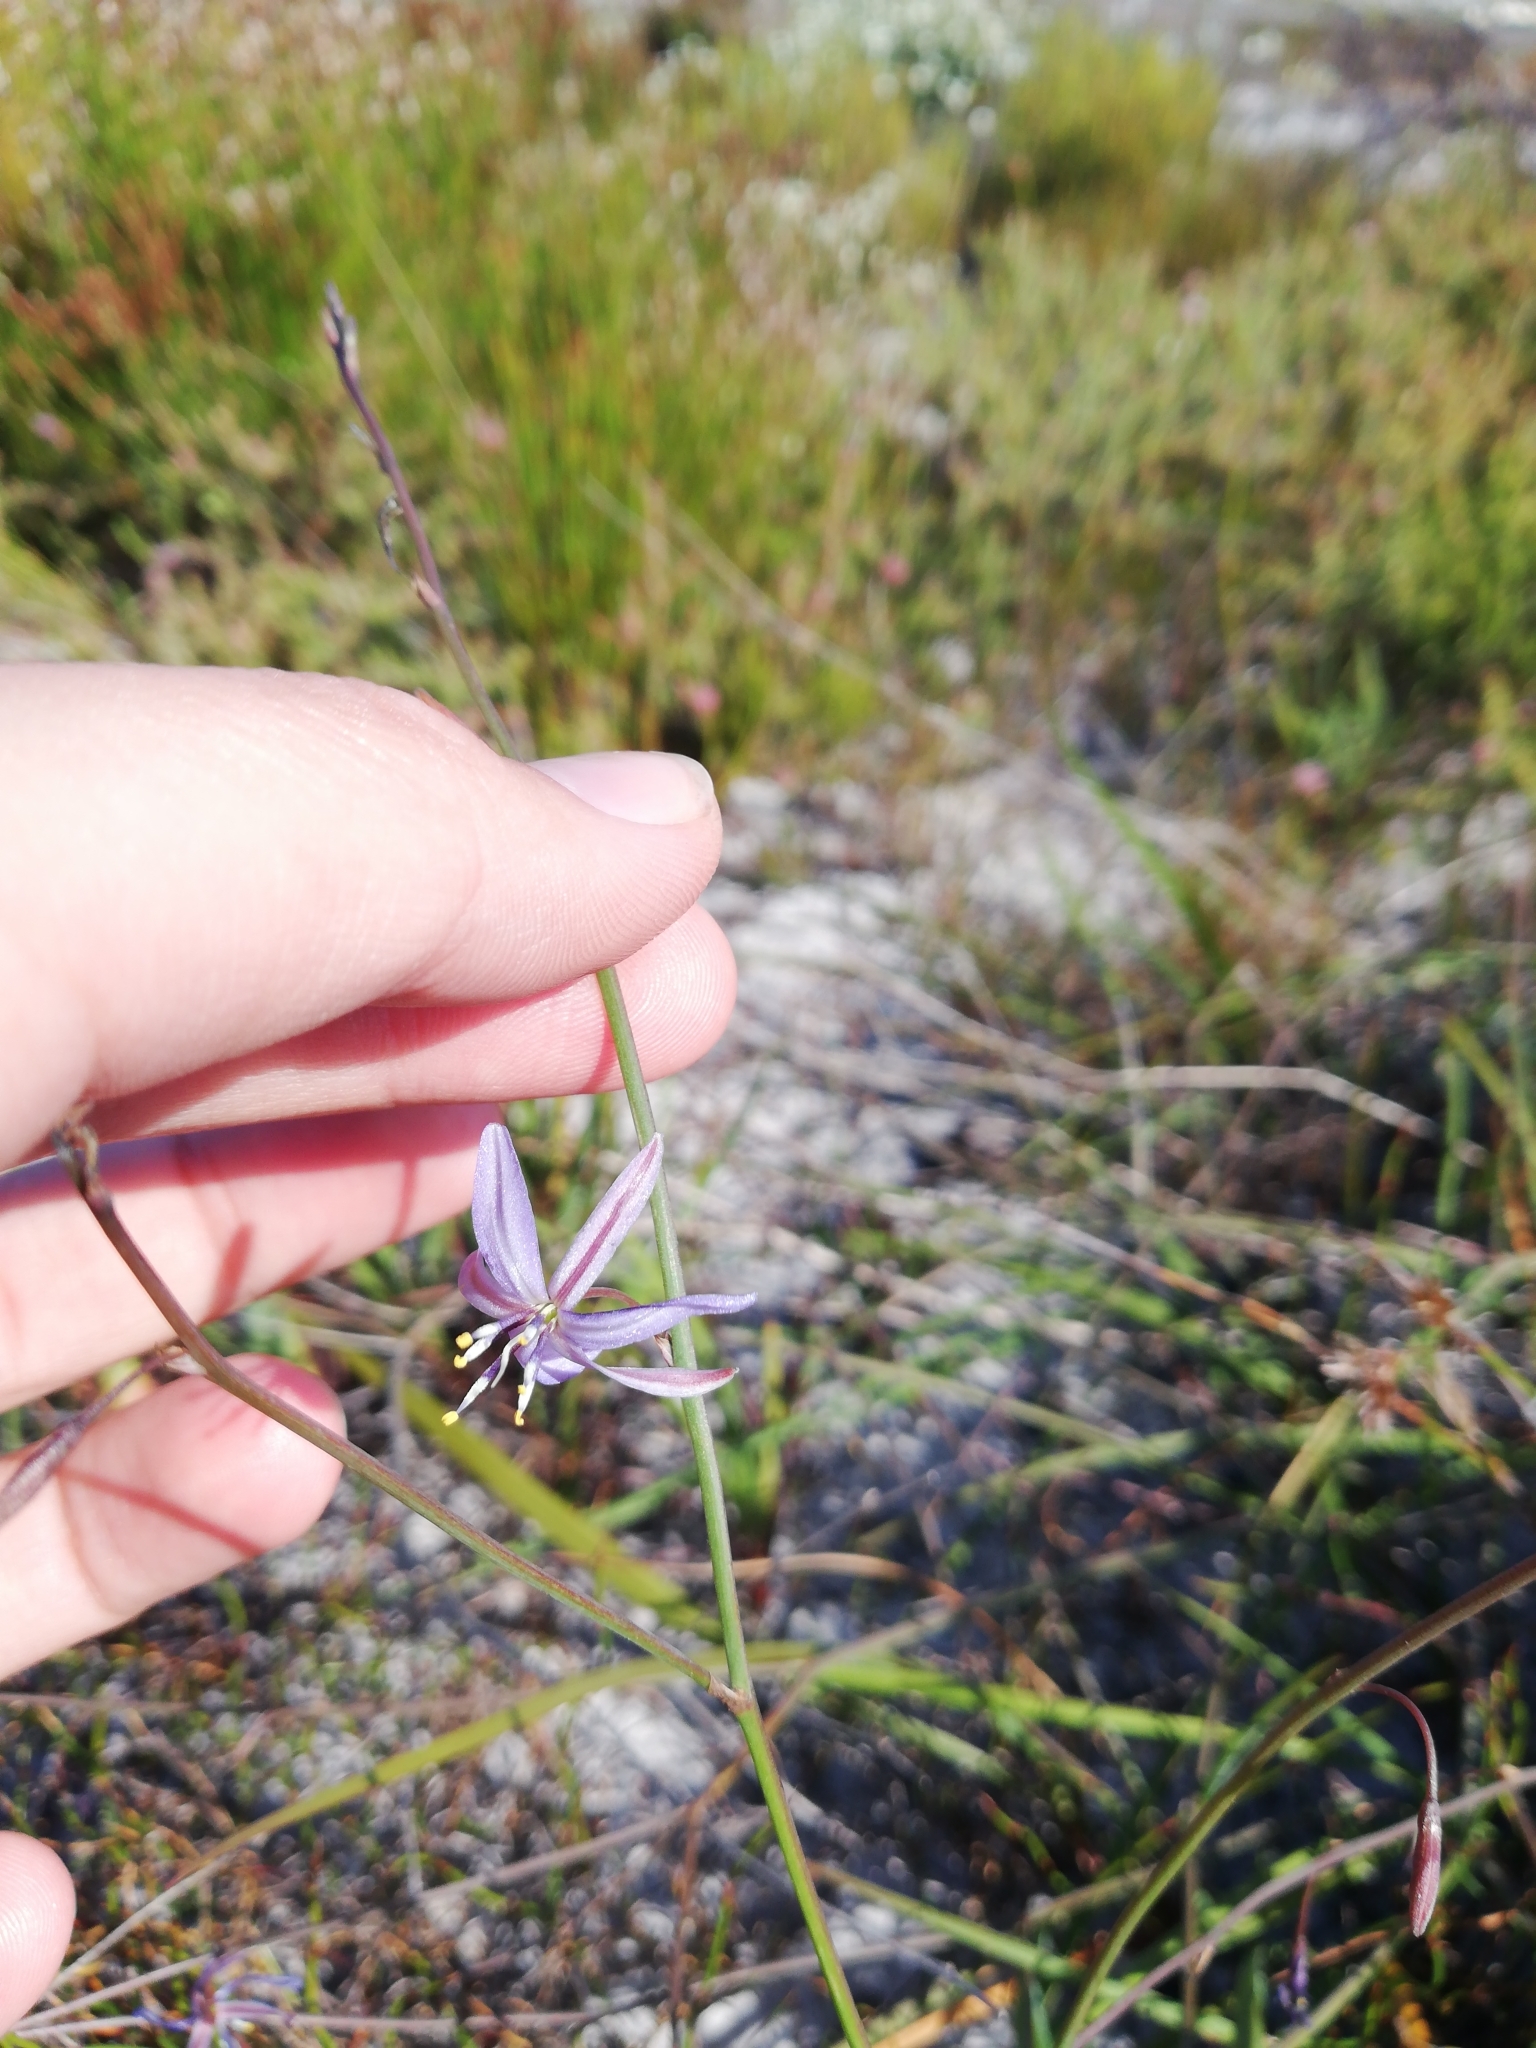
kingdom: Plantae
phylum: Tracheophyta
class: Liliopsida
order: Asparagales
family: Asphodelaceae
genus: Caesia
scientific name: Caesia contorta
